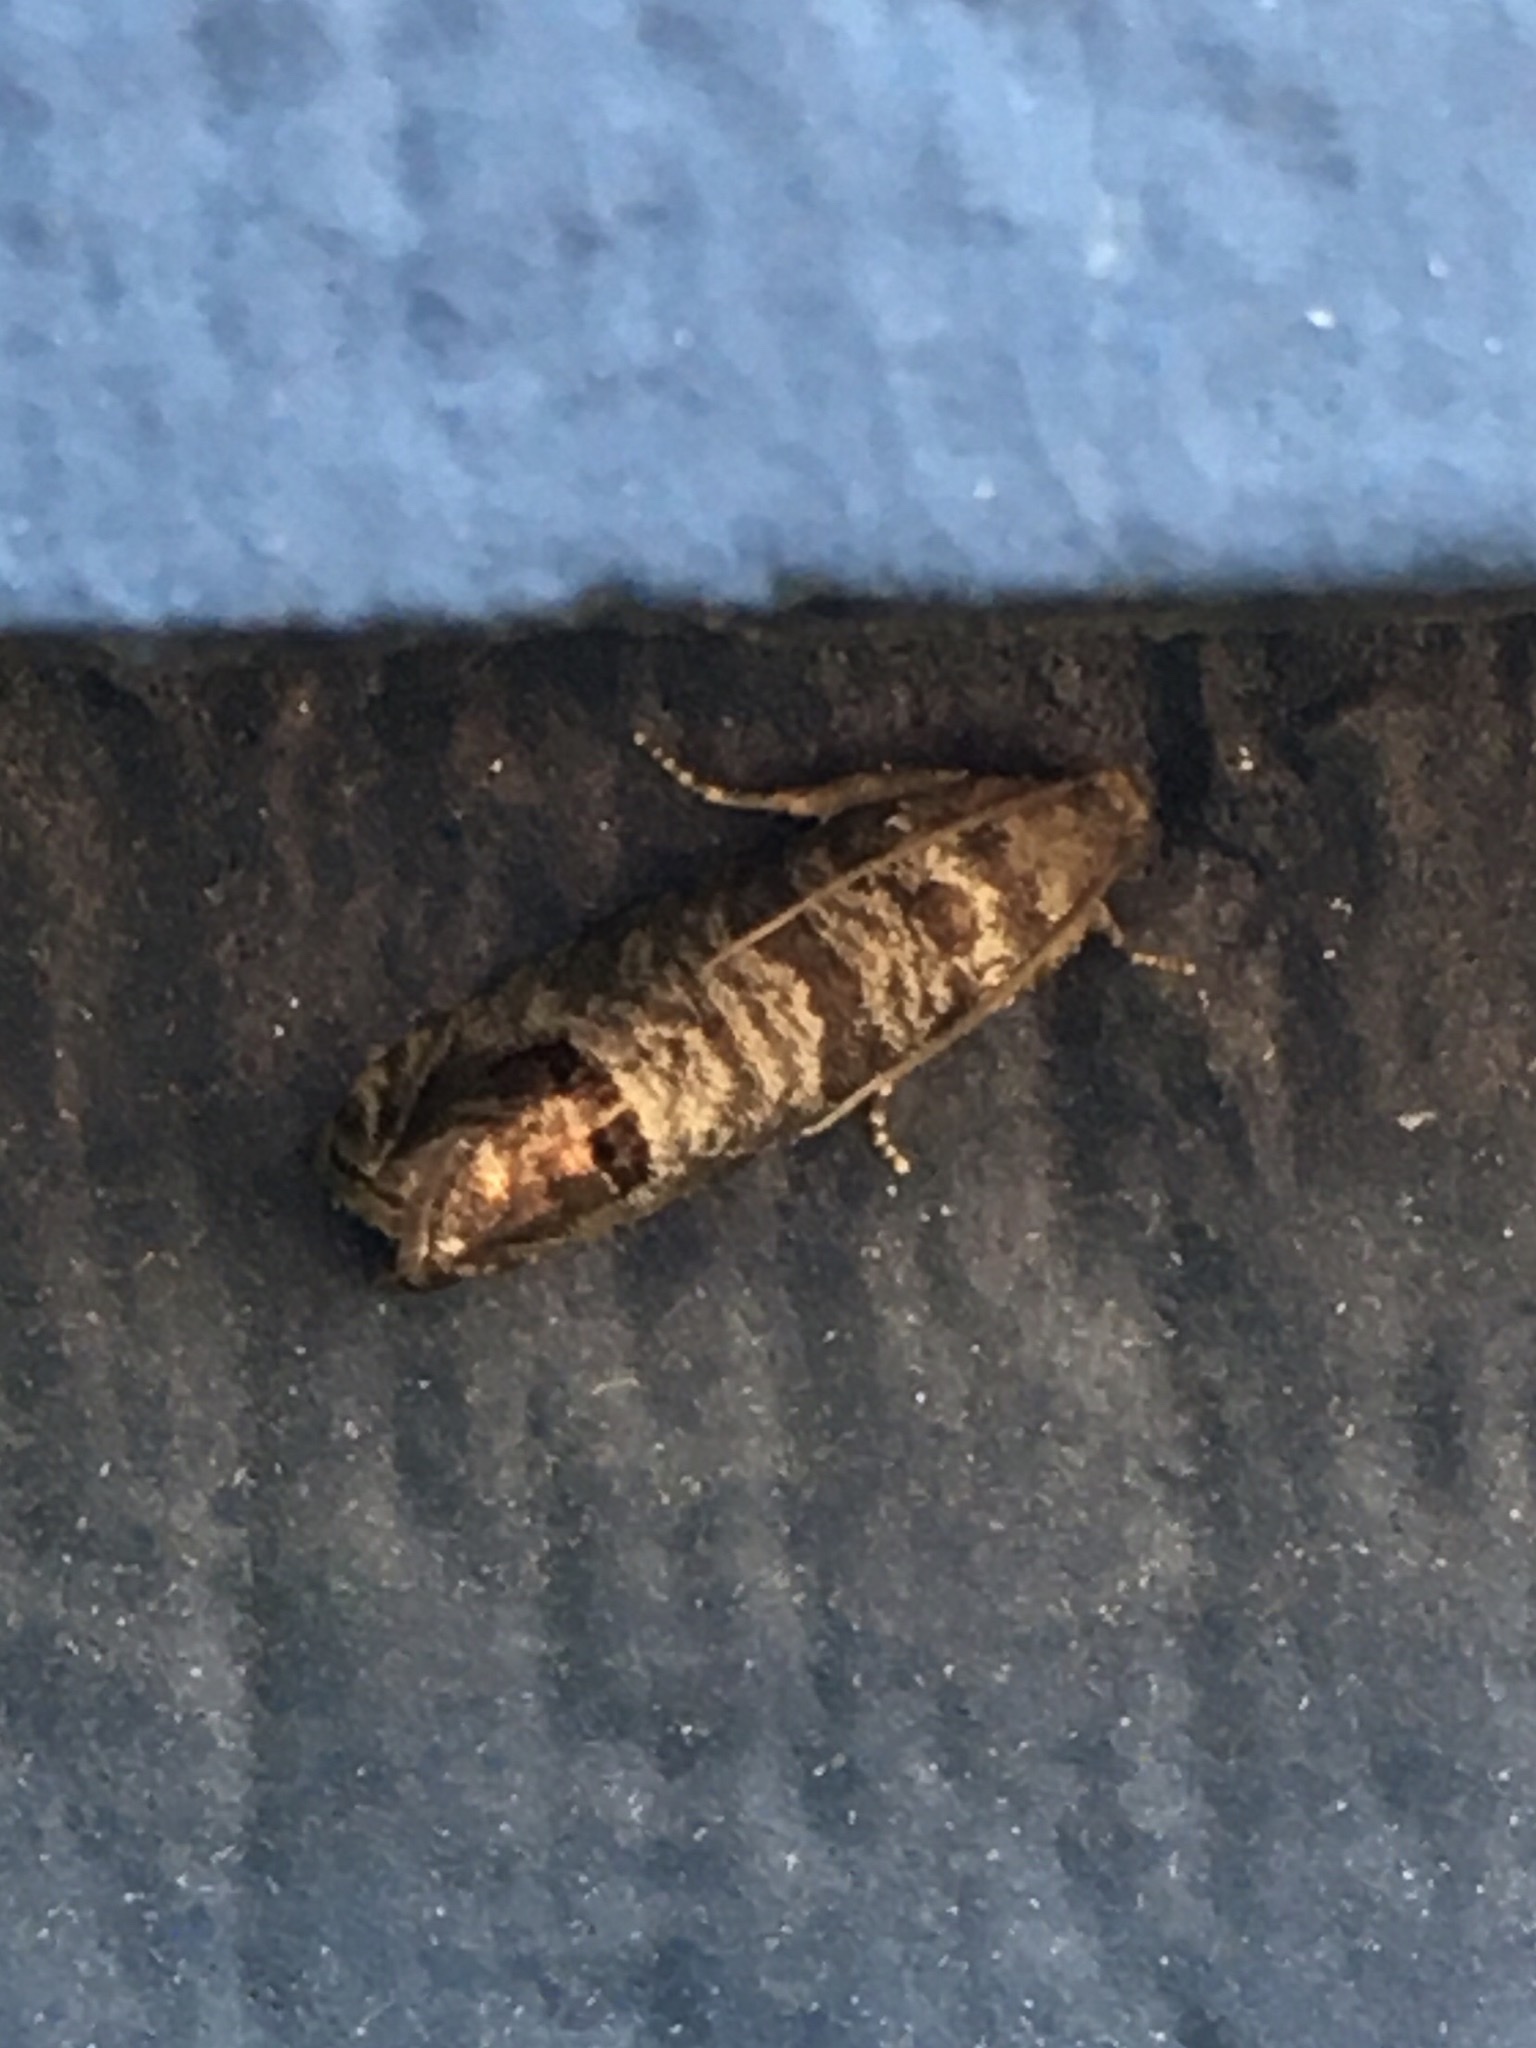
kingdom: Animalia
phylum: Arthropoda
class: Insecta
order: Lepidoptera
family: Tortricidae
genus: Cydia
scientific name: Cydia pomonella
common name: Codling moth
